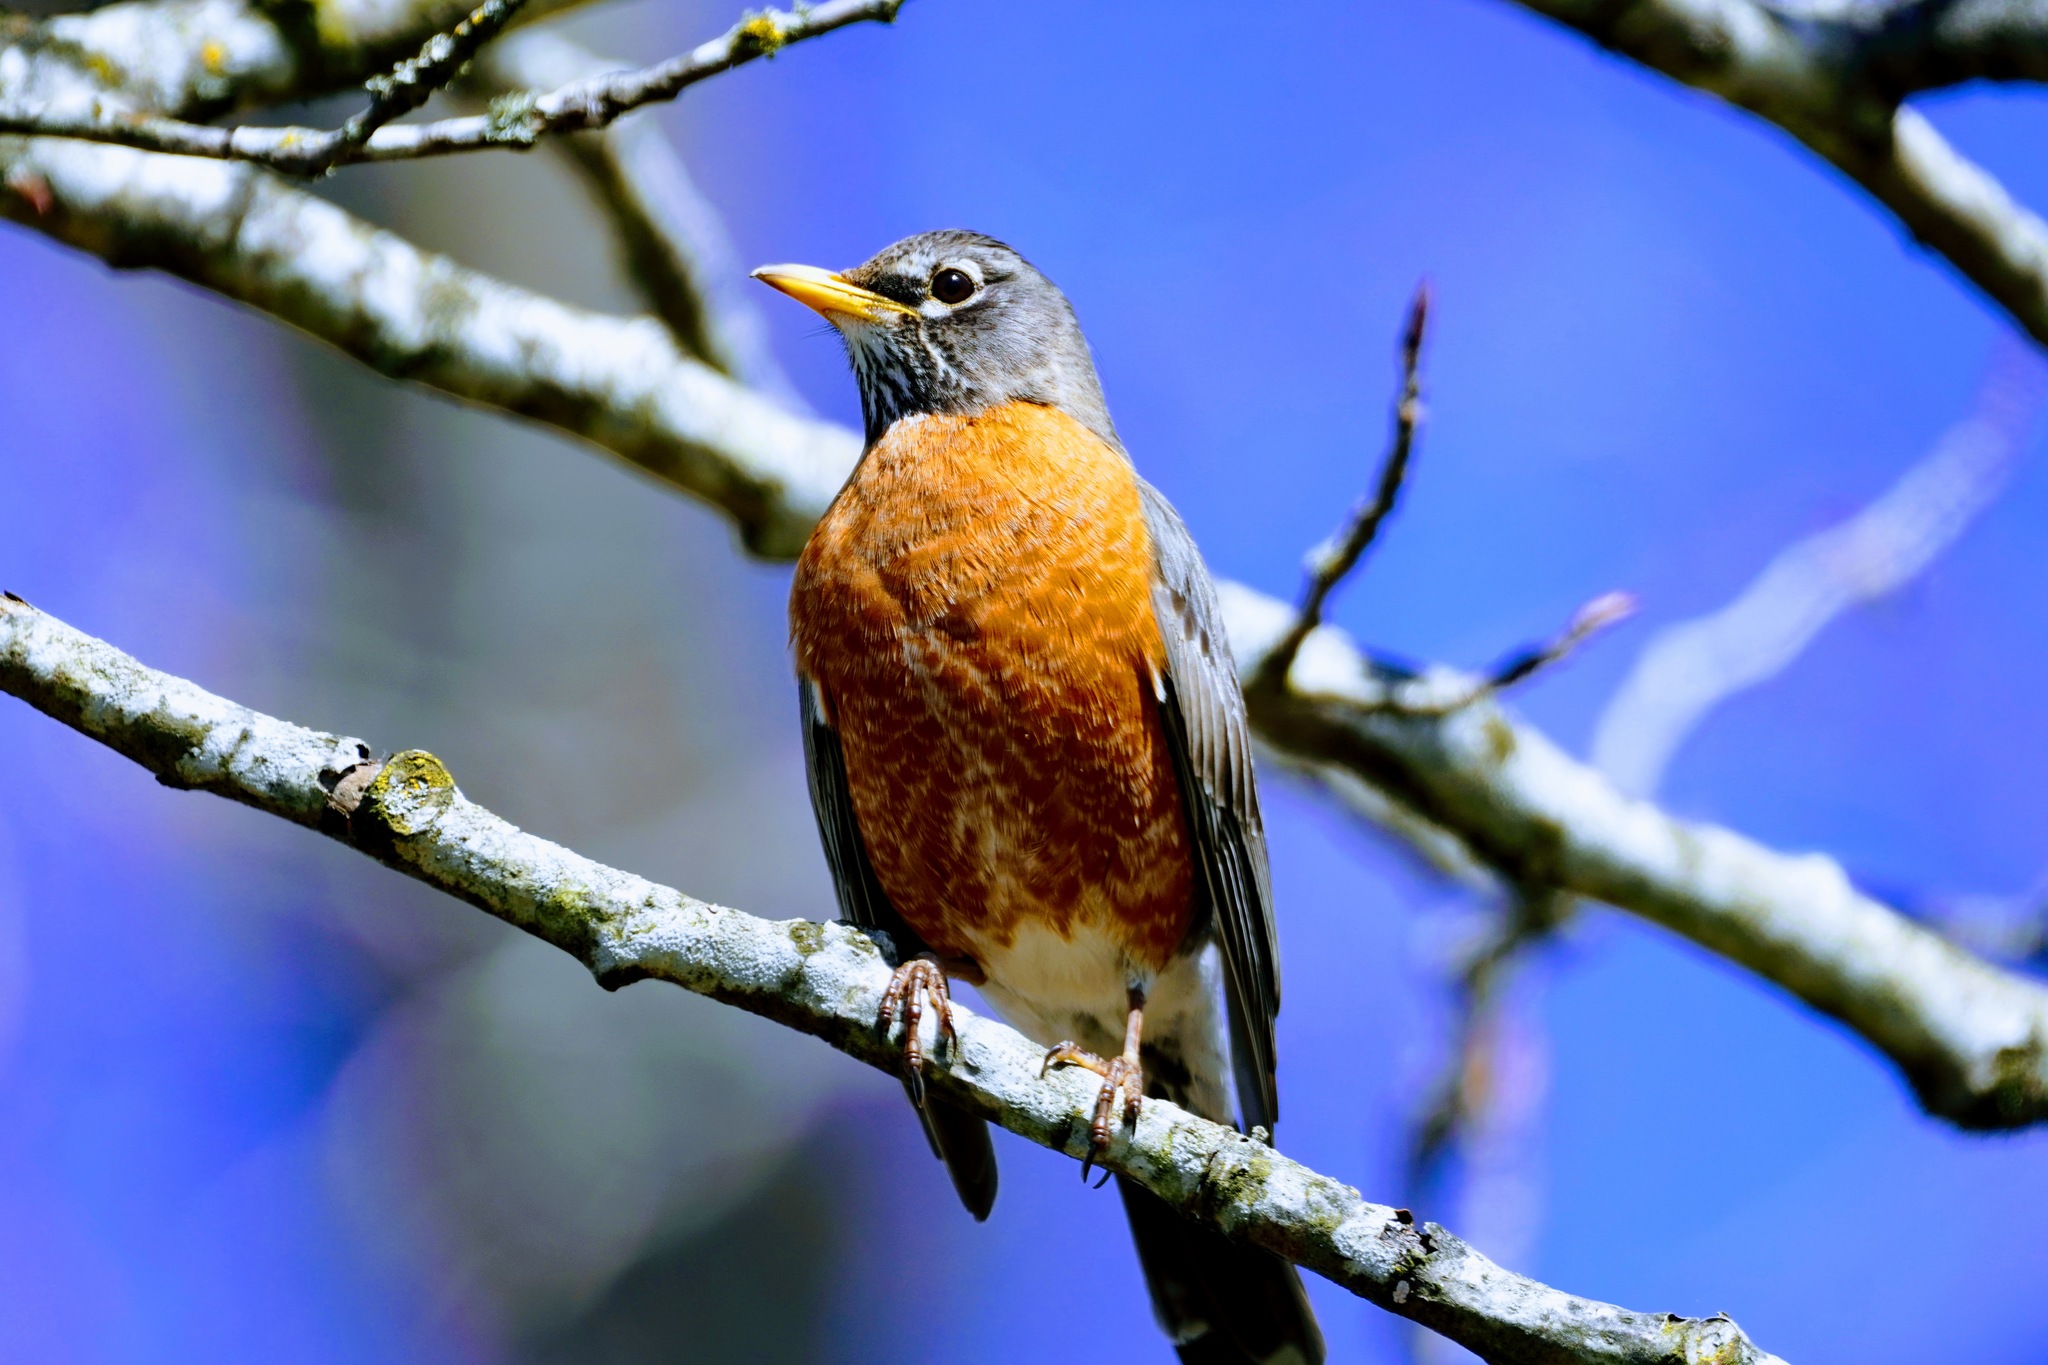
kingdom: Animalia
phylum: Chordata
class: Aves
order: Passeriformes
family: Turdidae
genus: Turdus
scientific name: Turdus migratorius
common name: American robin
